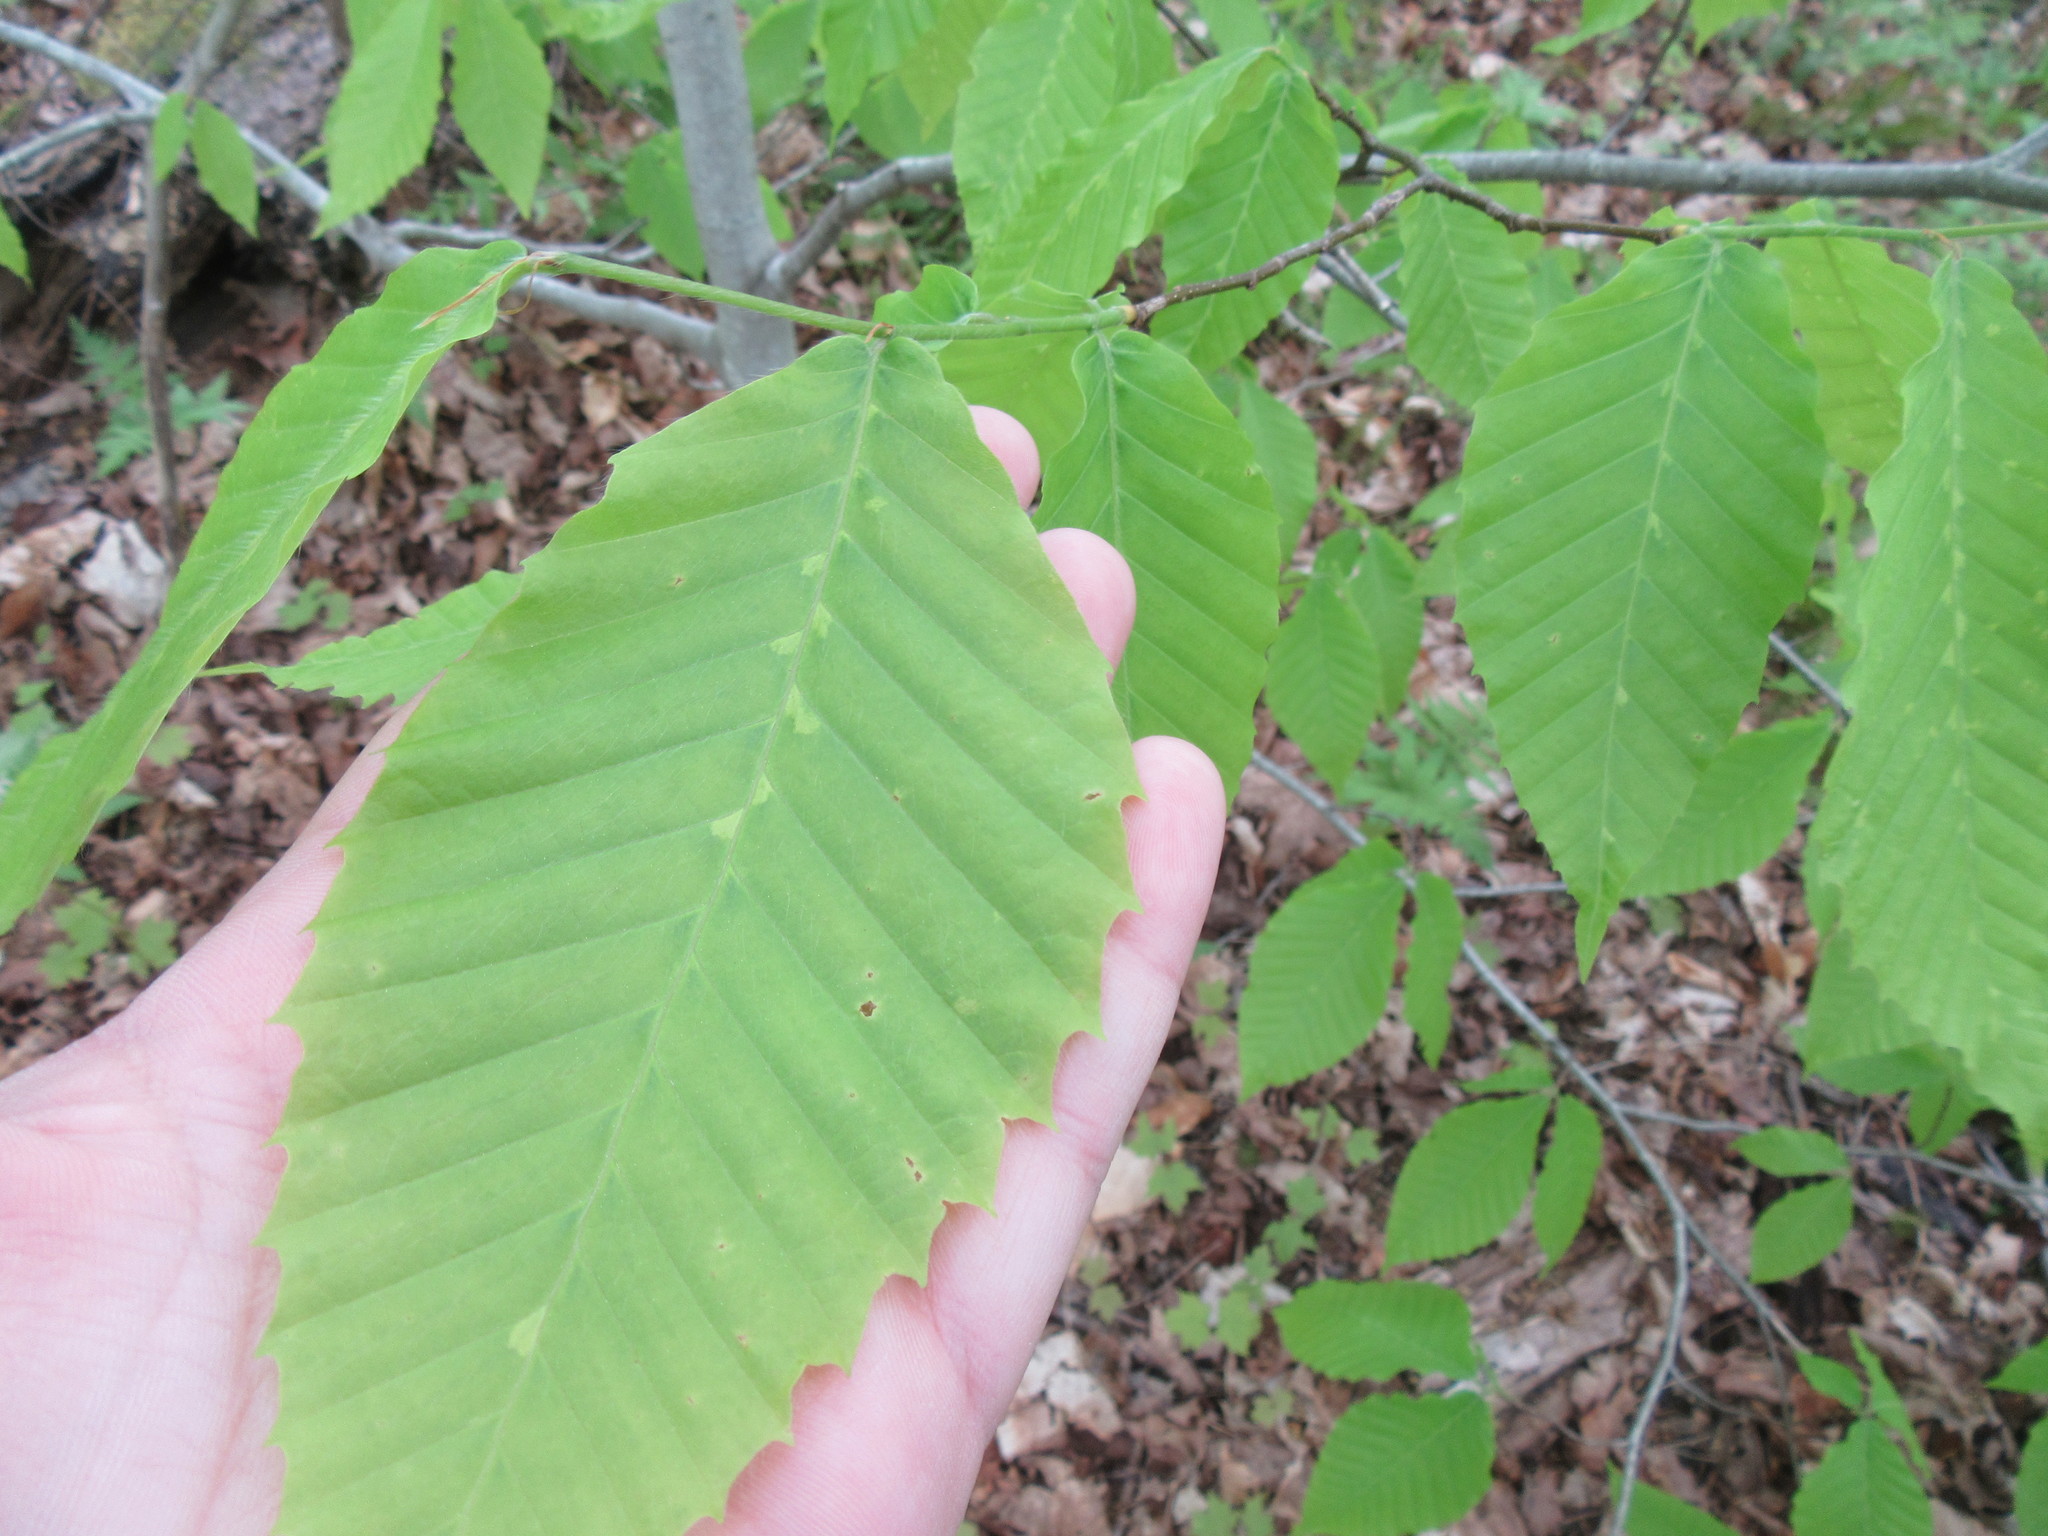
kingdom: Plantae
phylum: Tracheophyta
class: Magnoliopsida
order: Fagales
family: Fagaceae
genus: Fagus
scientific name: Fagus grandifolia
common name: American beech
